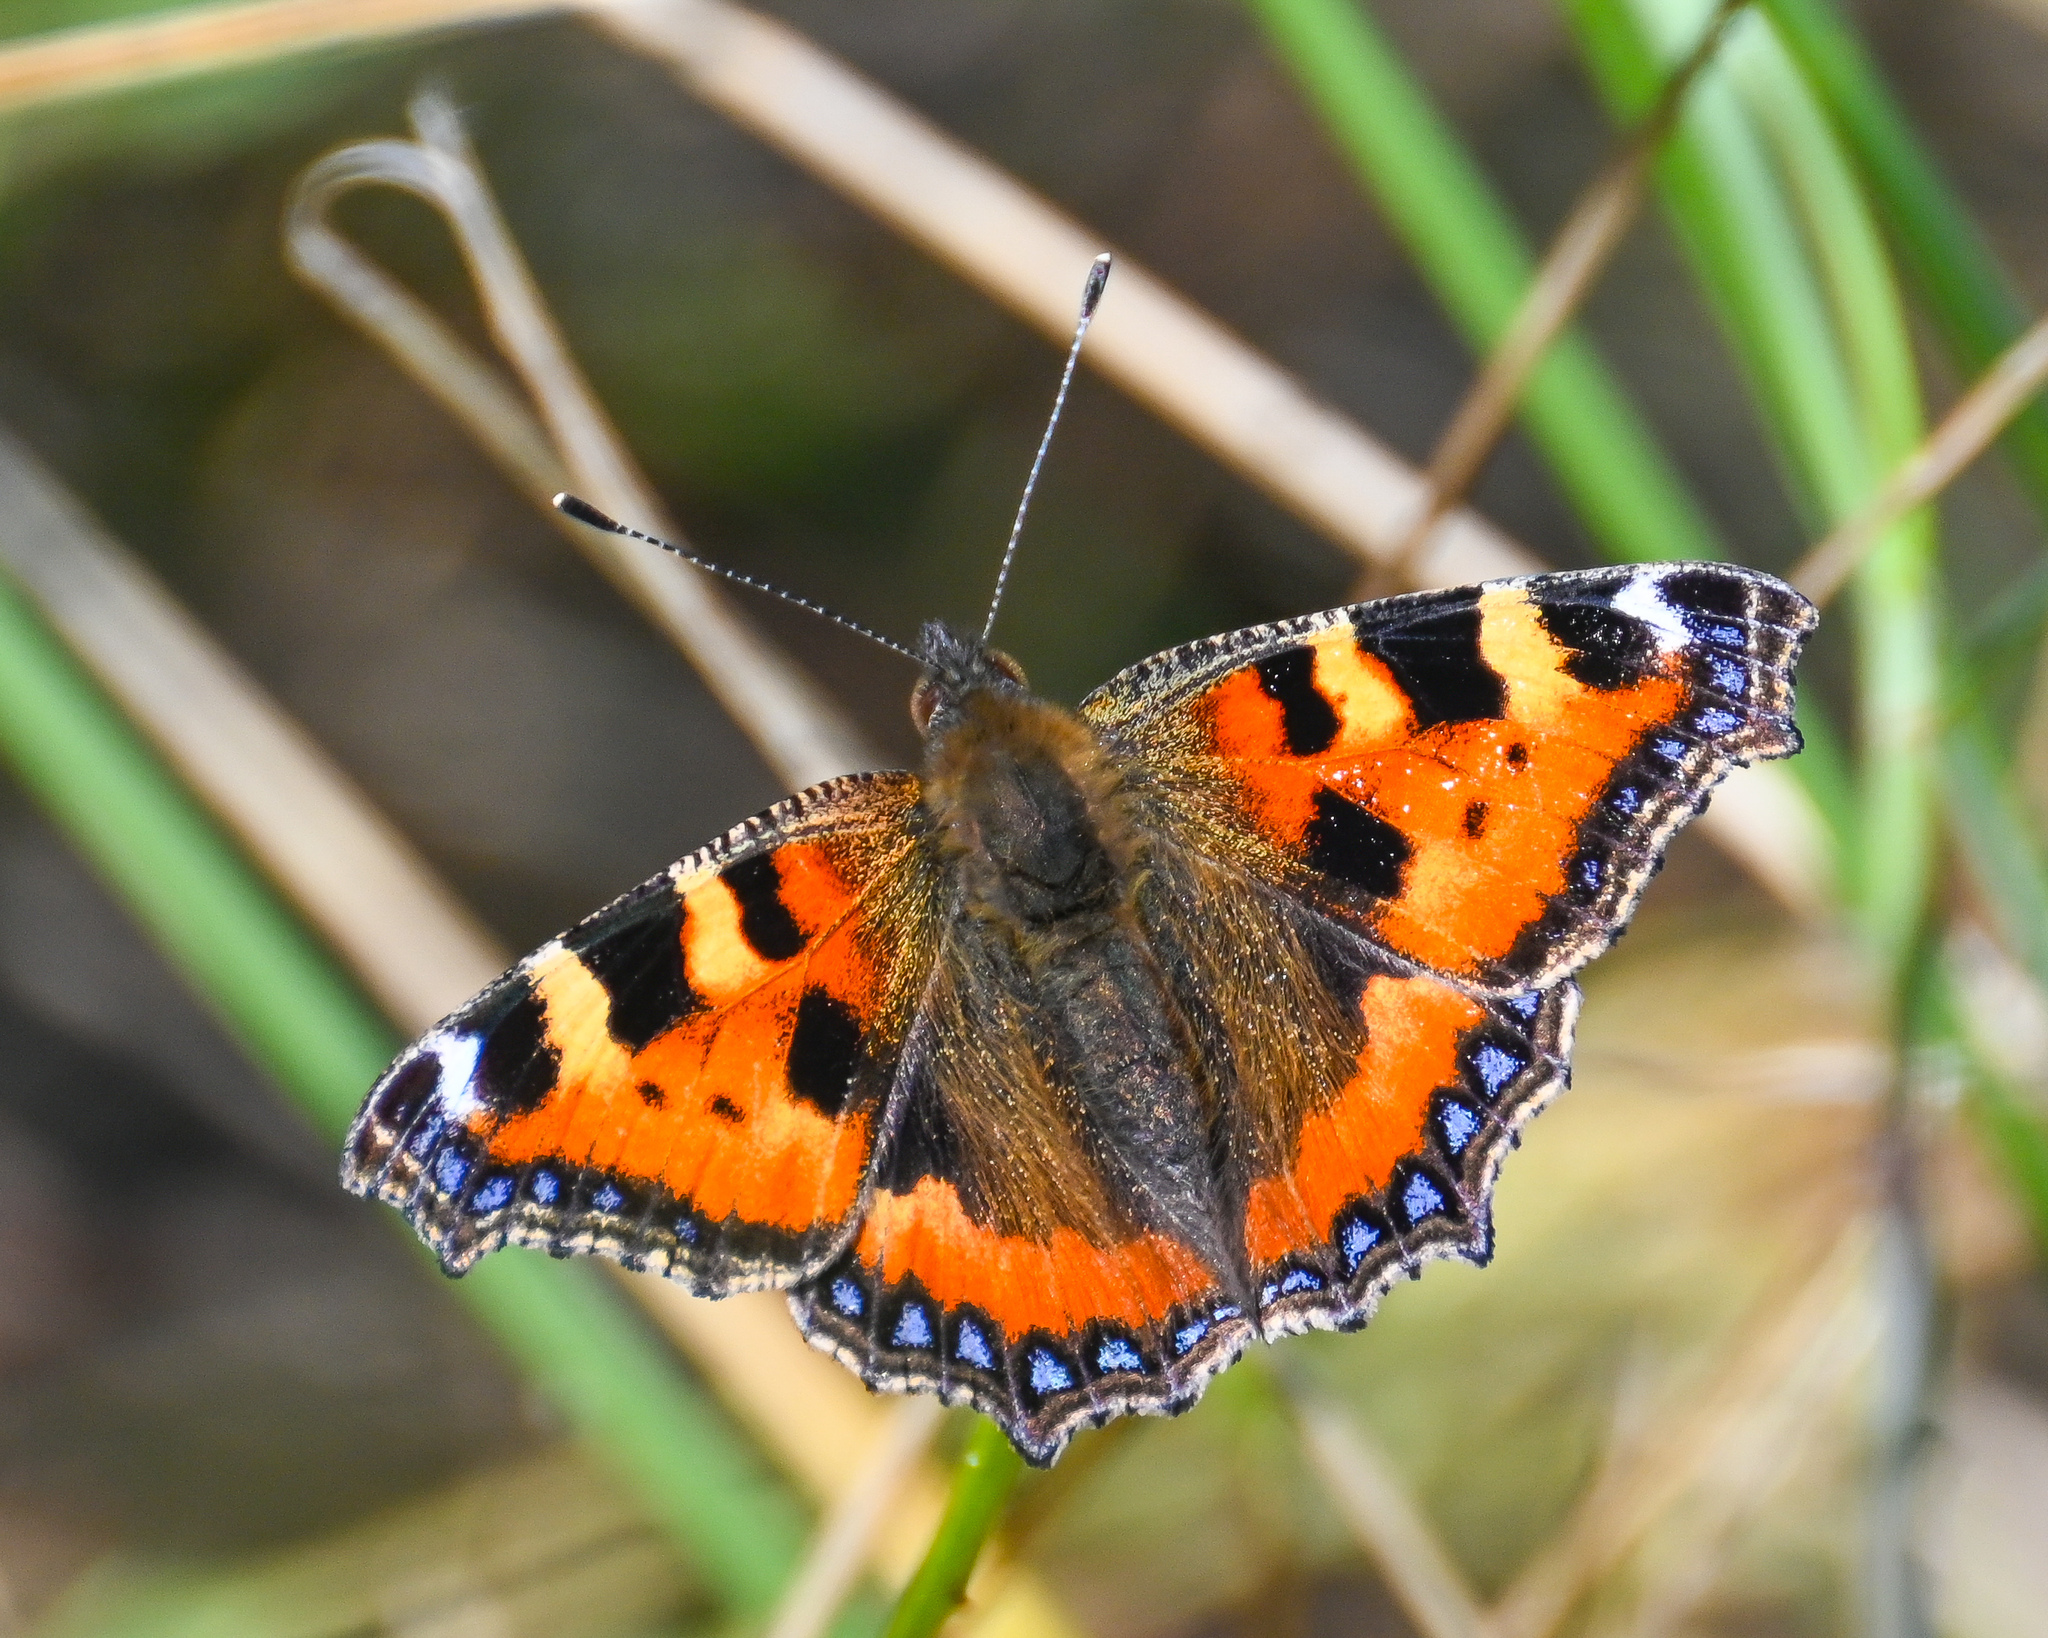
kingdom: Animalia
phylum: Arthropoda
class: Insecta
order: Lepidoptera
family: Nymphalidae
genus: Aglais
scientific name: Aglais urticae
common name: Small tortoiseshell
